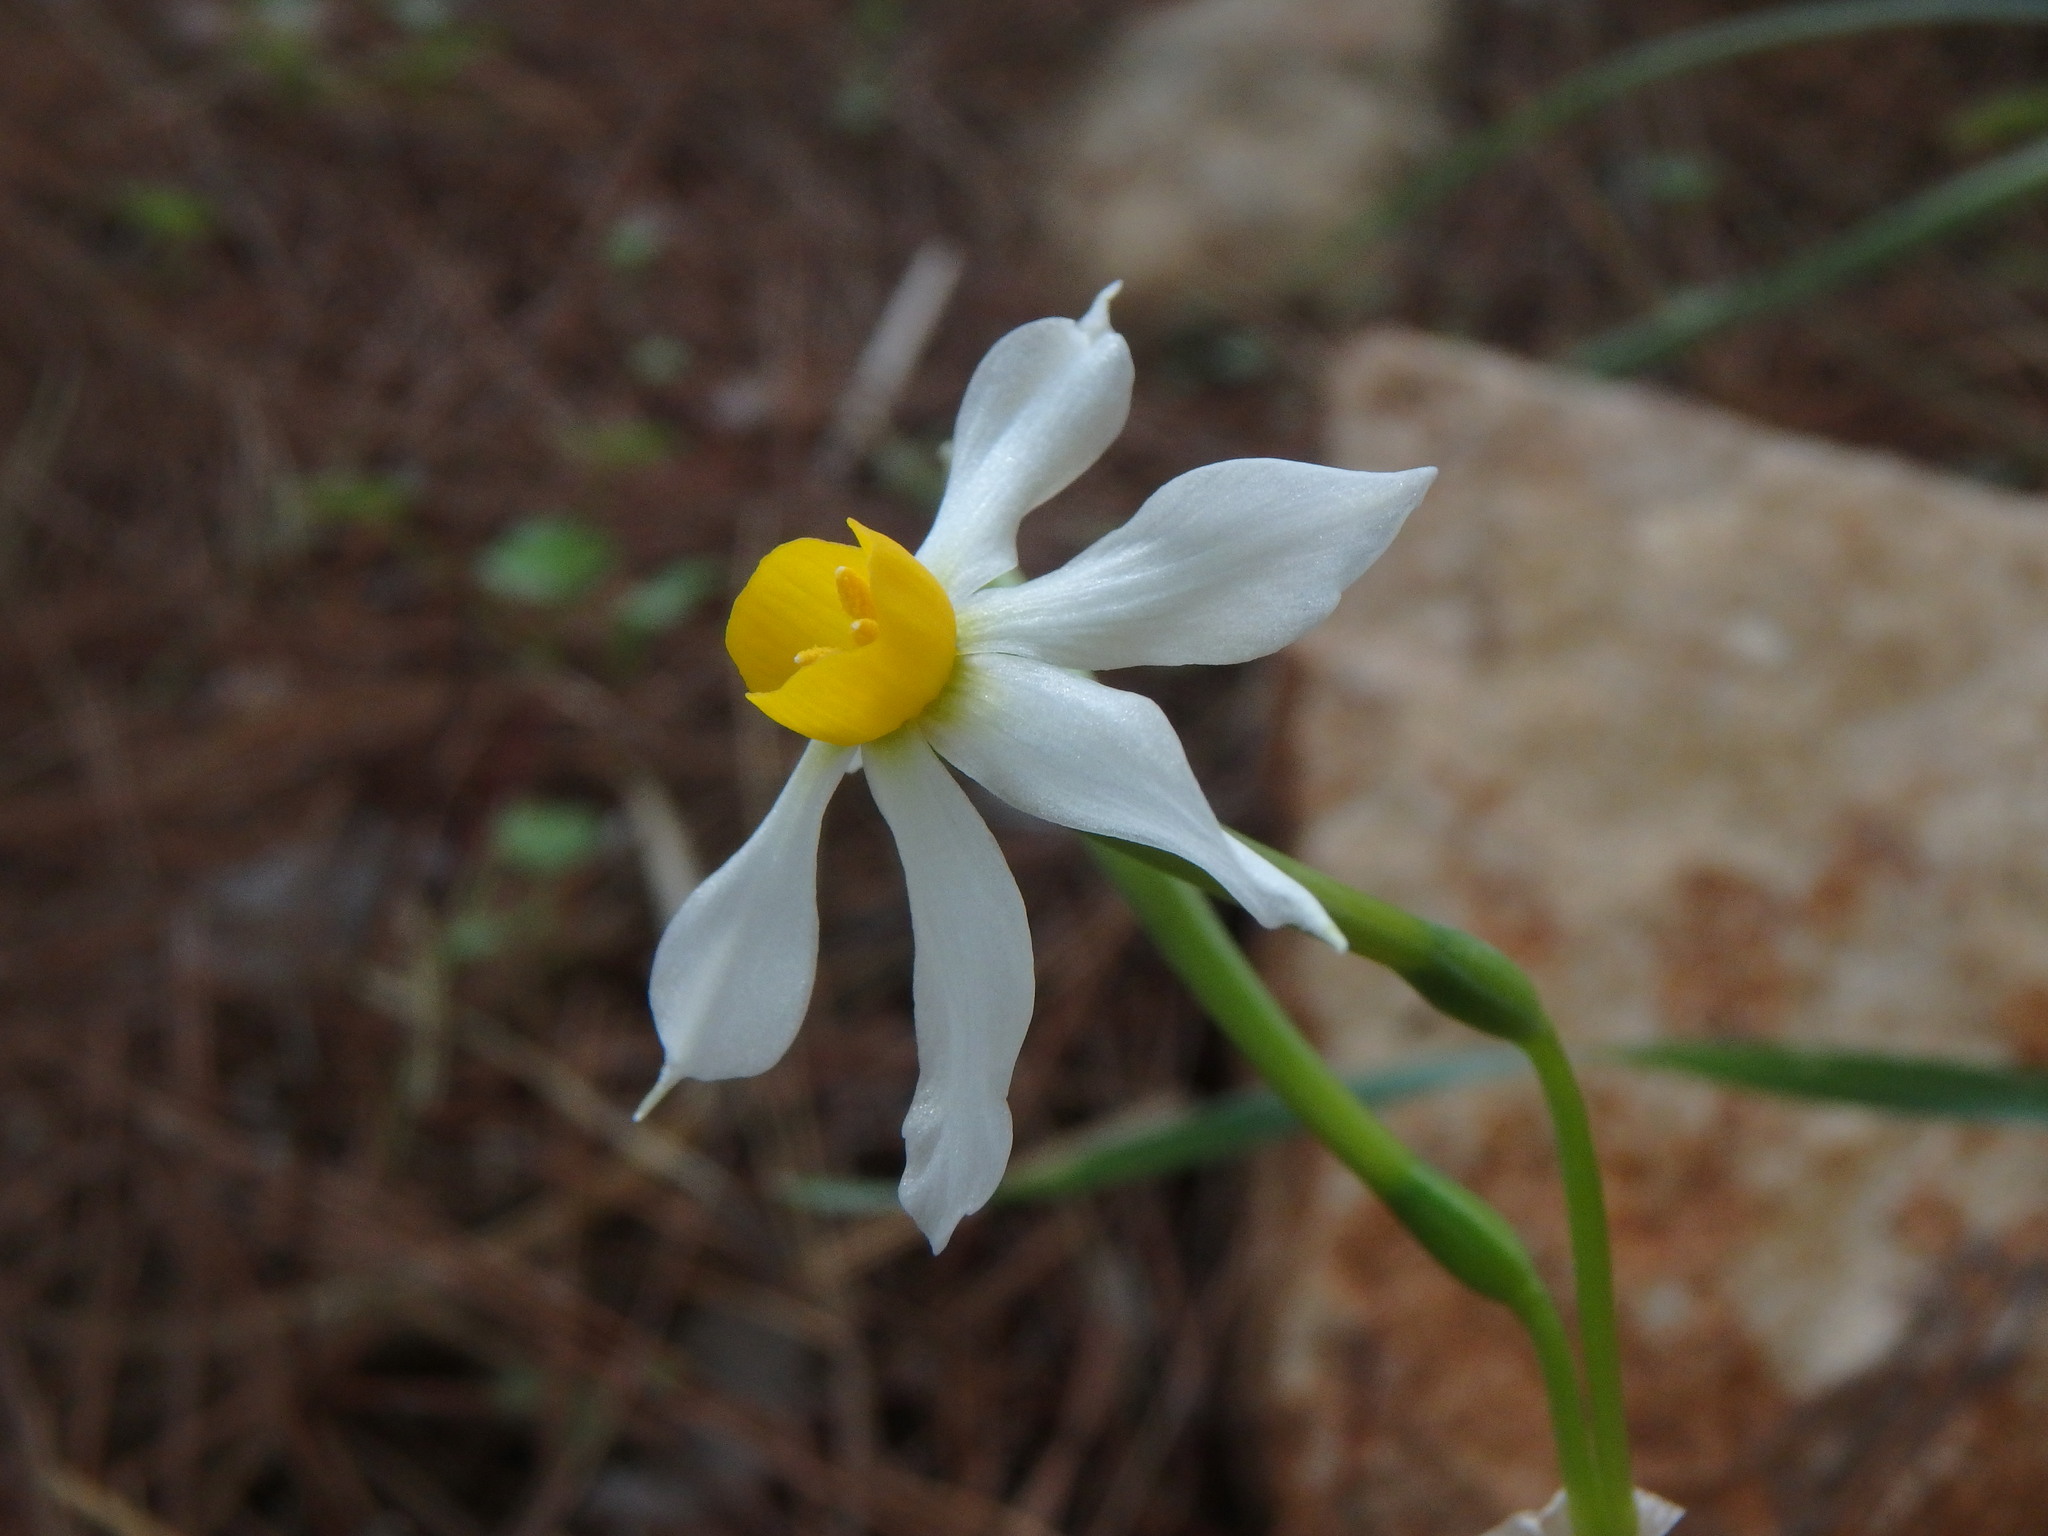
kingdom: Plantae
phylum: Tracheophyta
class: Liliopsida
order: Asparagales
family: Amaryllidaceae
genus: Narcissus
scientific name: Narcissus tazetta
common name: Bunch-flowered daffodil
